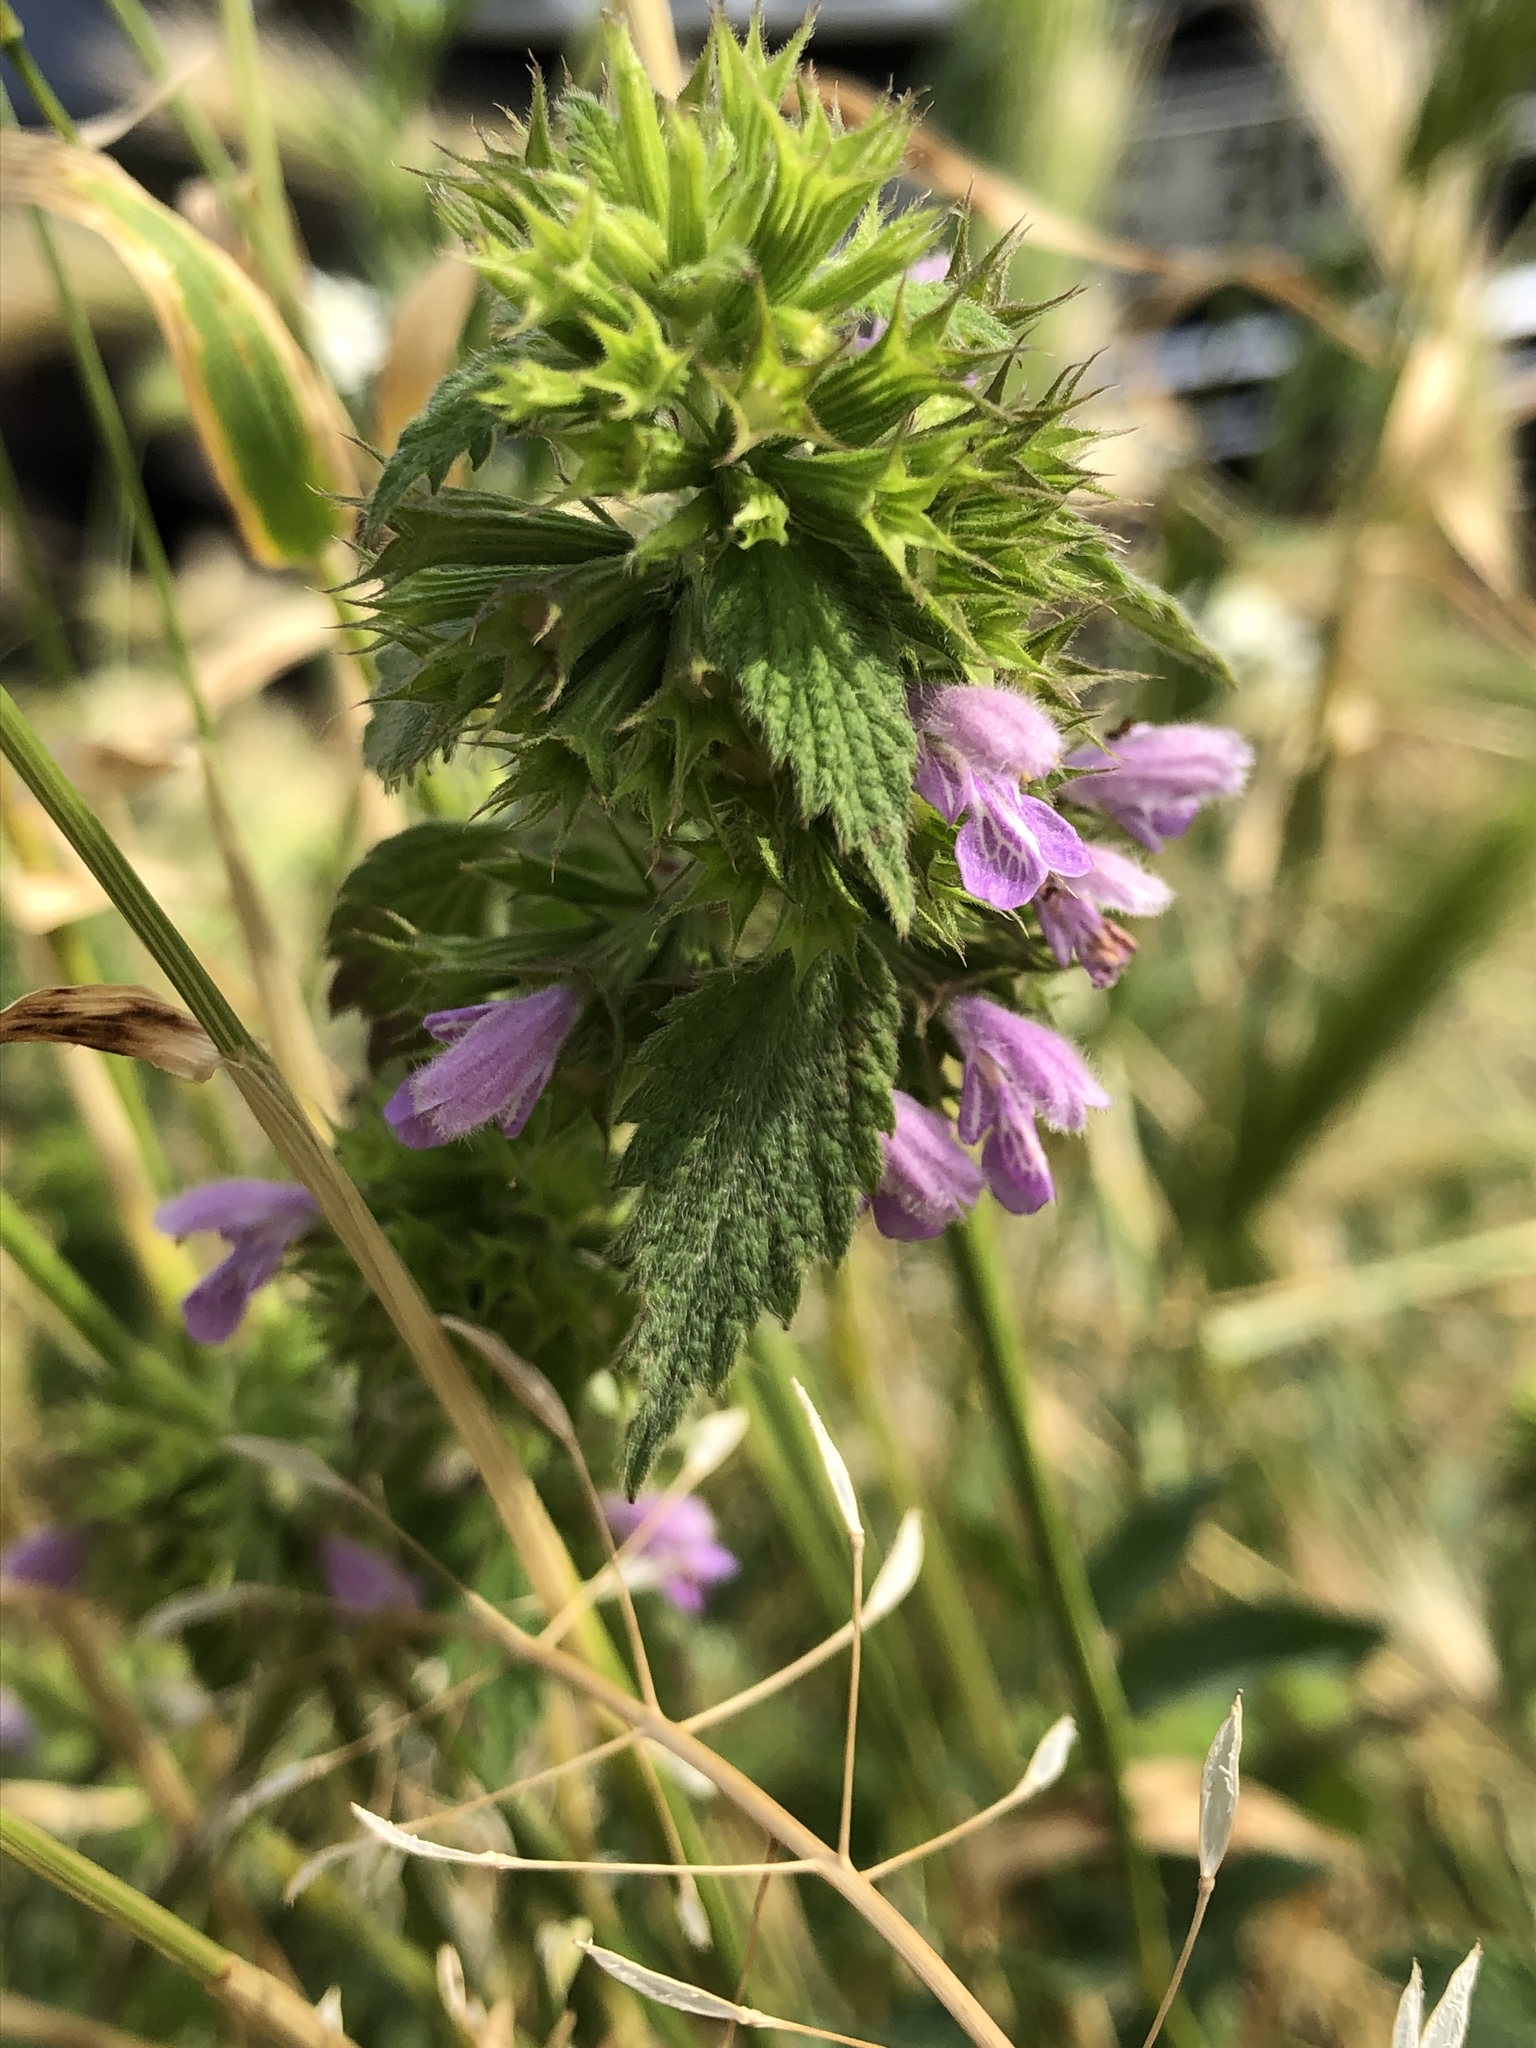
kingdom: Plantae
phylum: Tracheophyta
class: Magnoliopsida
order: Lamiales
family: Lamiaceae
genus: Ballota
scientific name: Ballota nigra
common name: Black horehound
